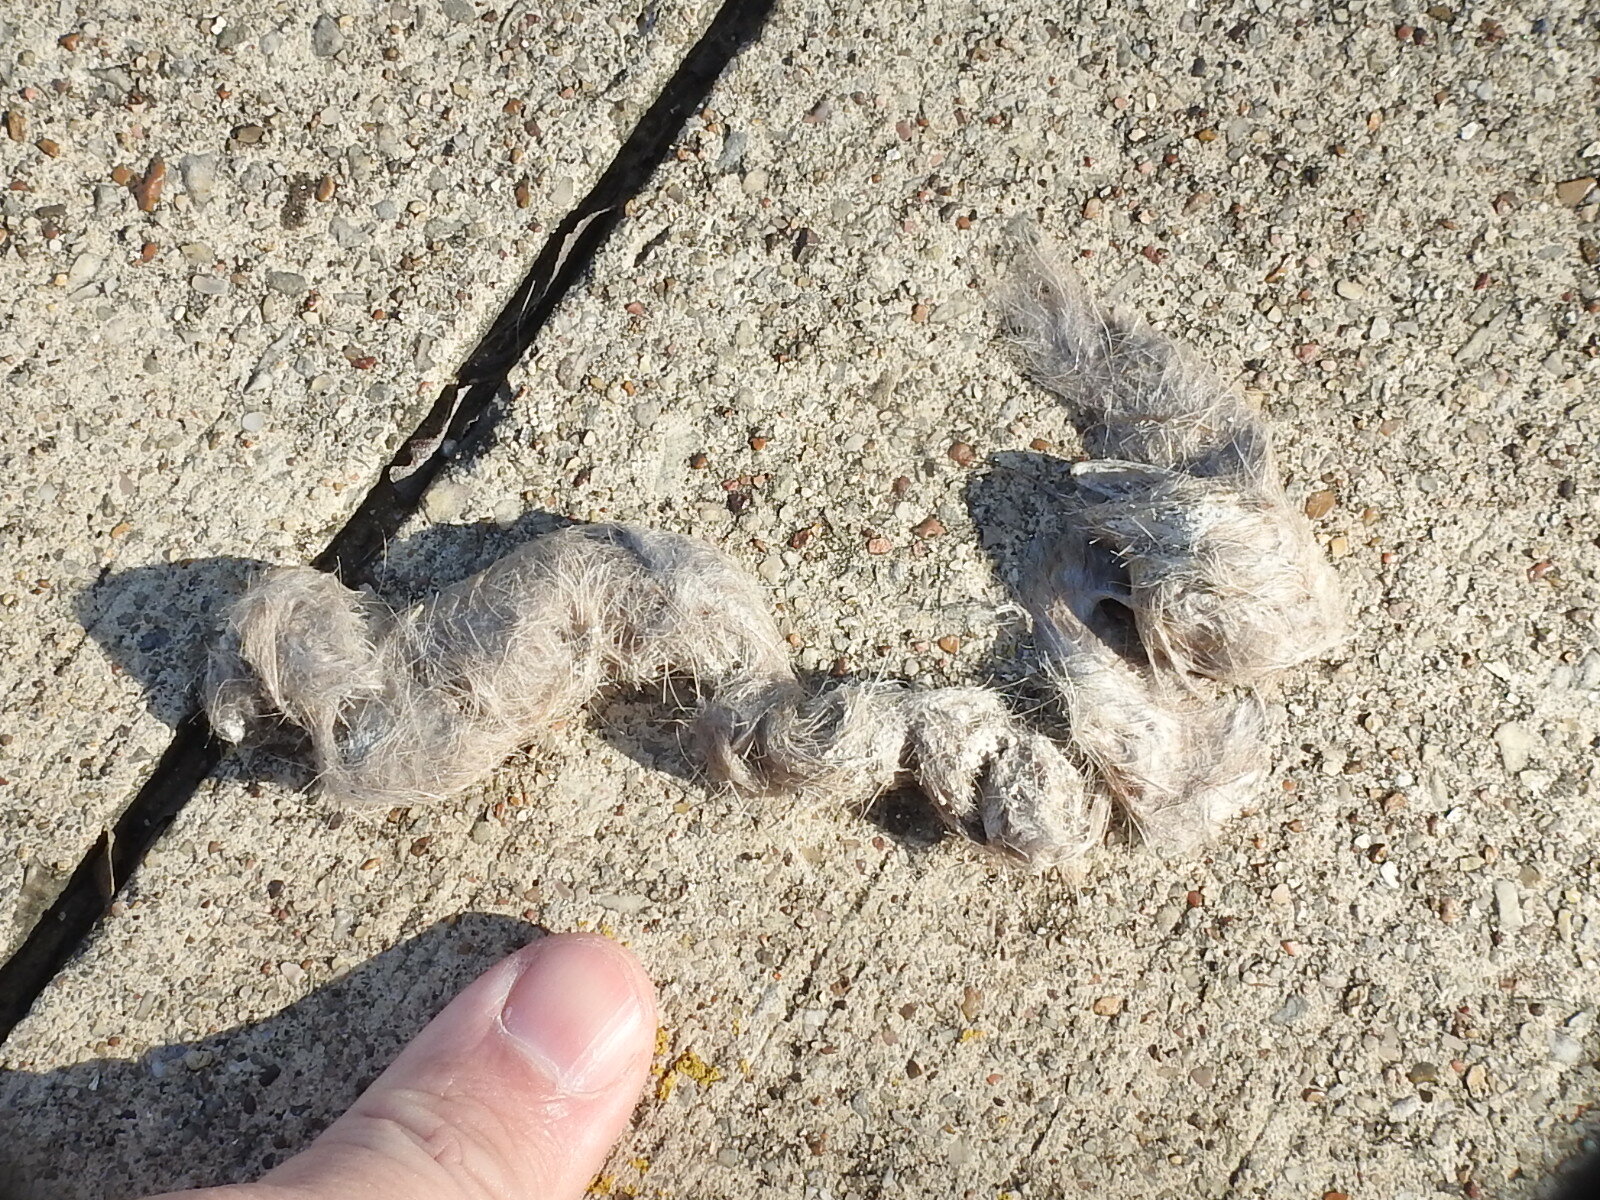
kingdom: Animalia
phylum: Chordata
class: Mammalia
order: Carnivora
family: Canidae
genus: Canis
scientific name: Canis latrans
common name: Coyote
